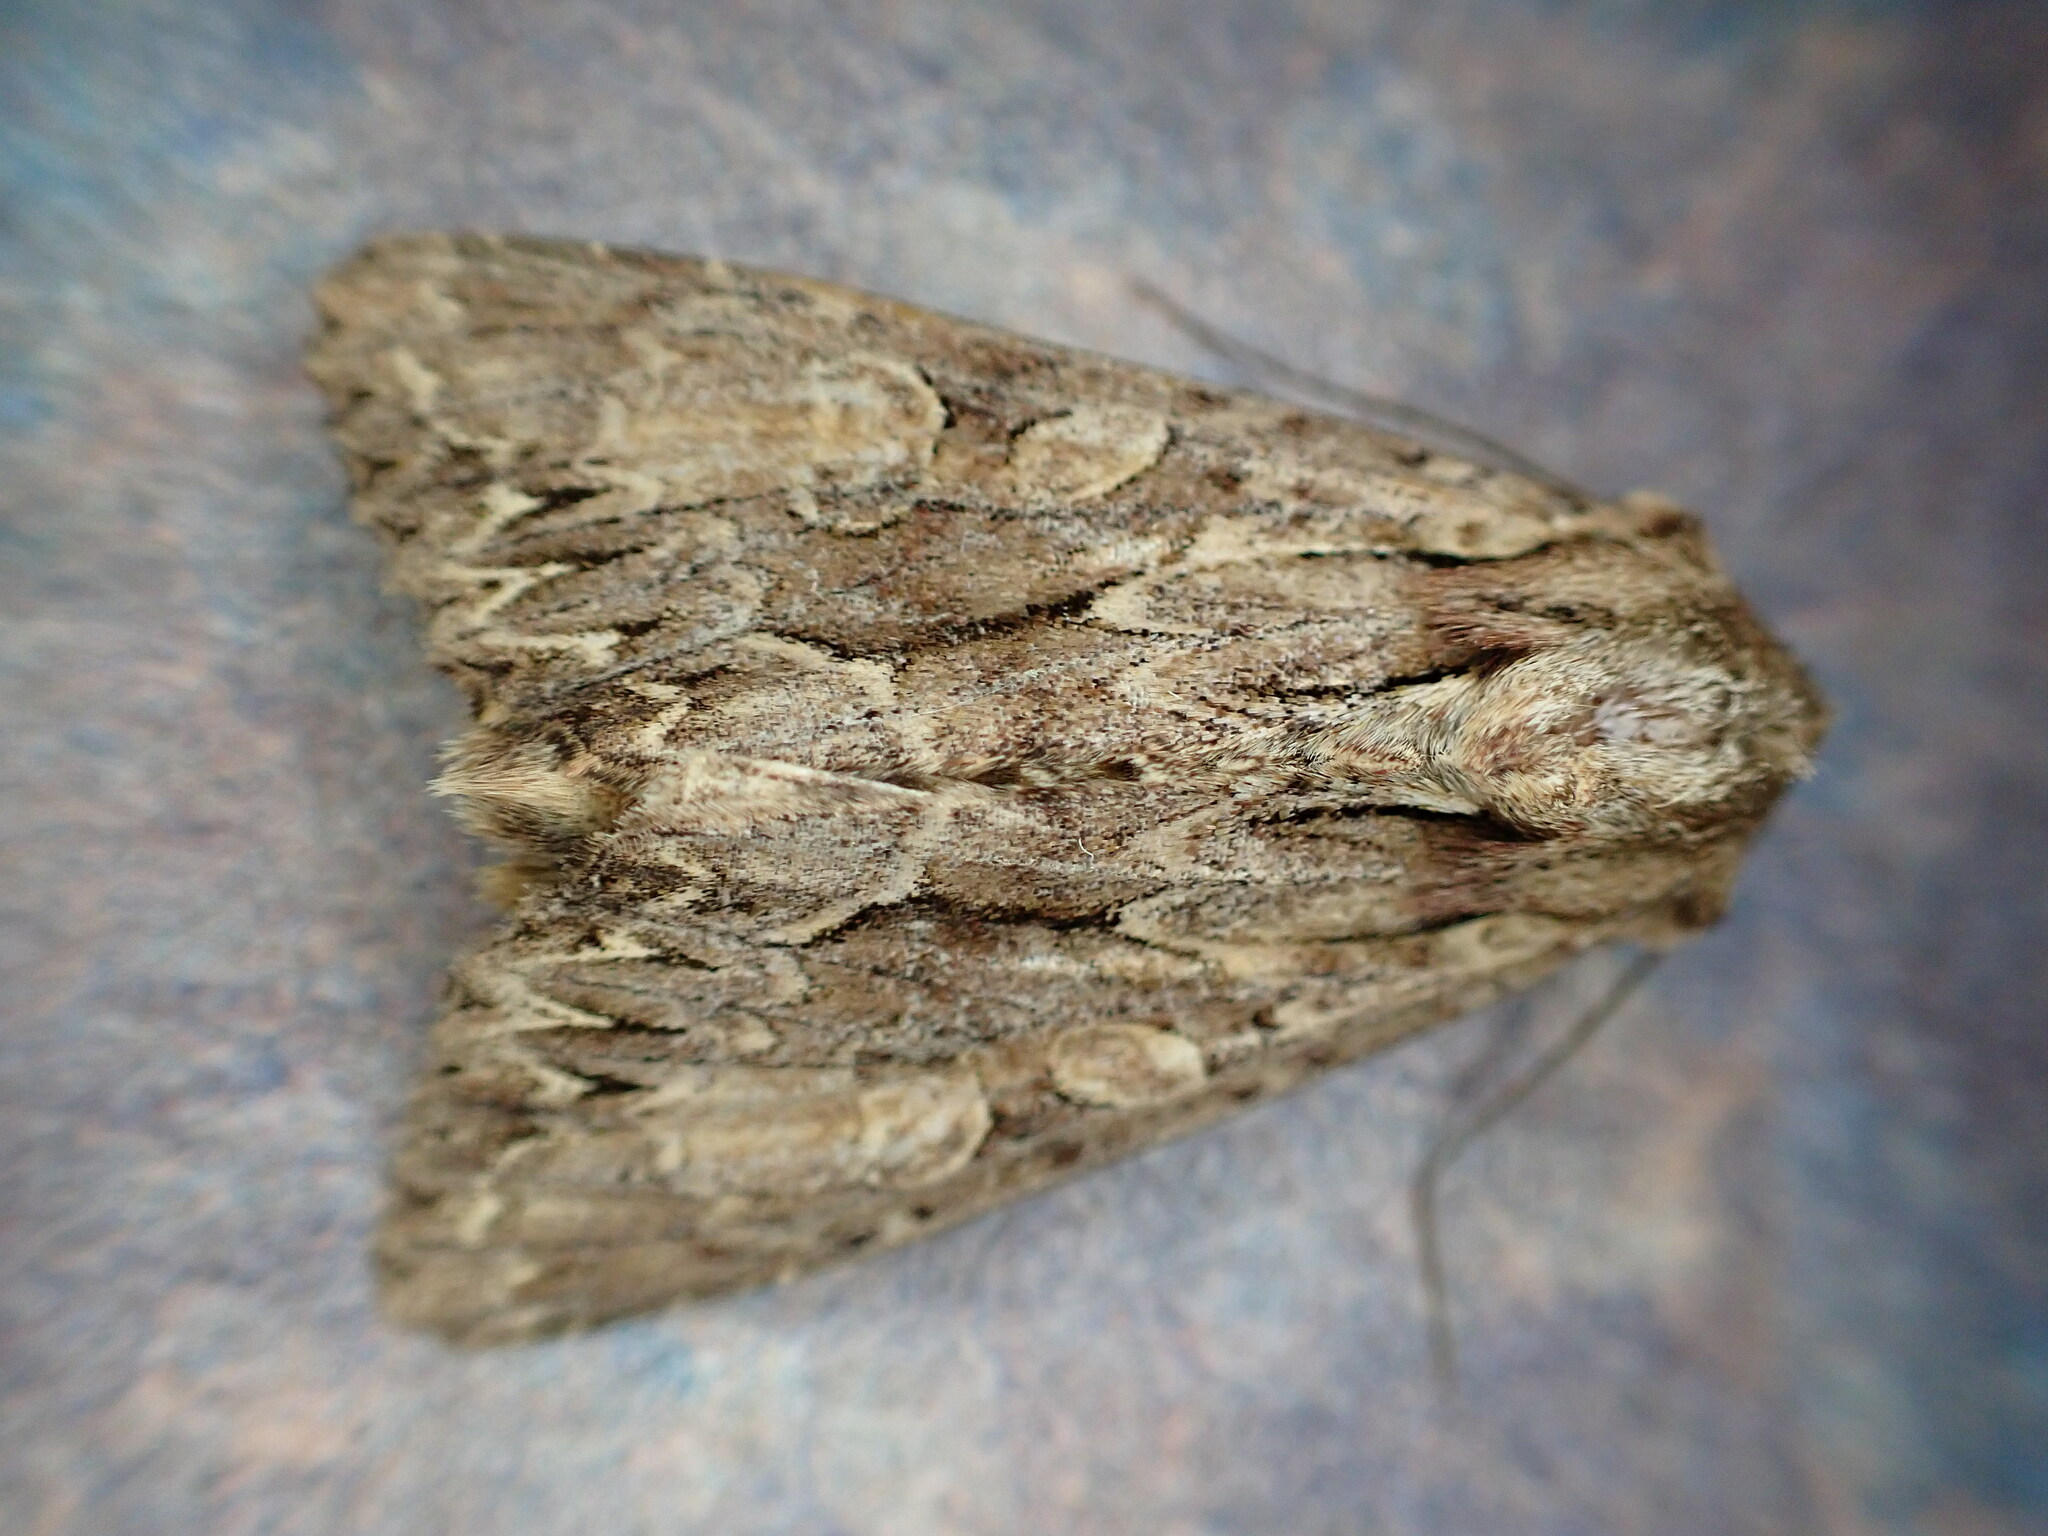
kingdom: Animalia
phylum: Arthropoda
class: Insecta
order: Lepidoptera
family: Noctuidae
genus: Apamea
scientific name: Apamea monoglypha
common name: Dark arches
